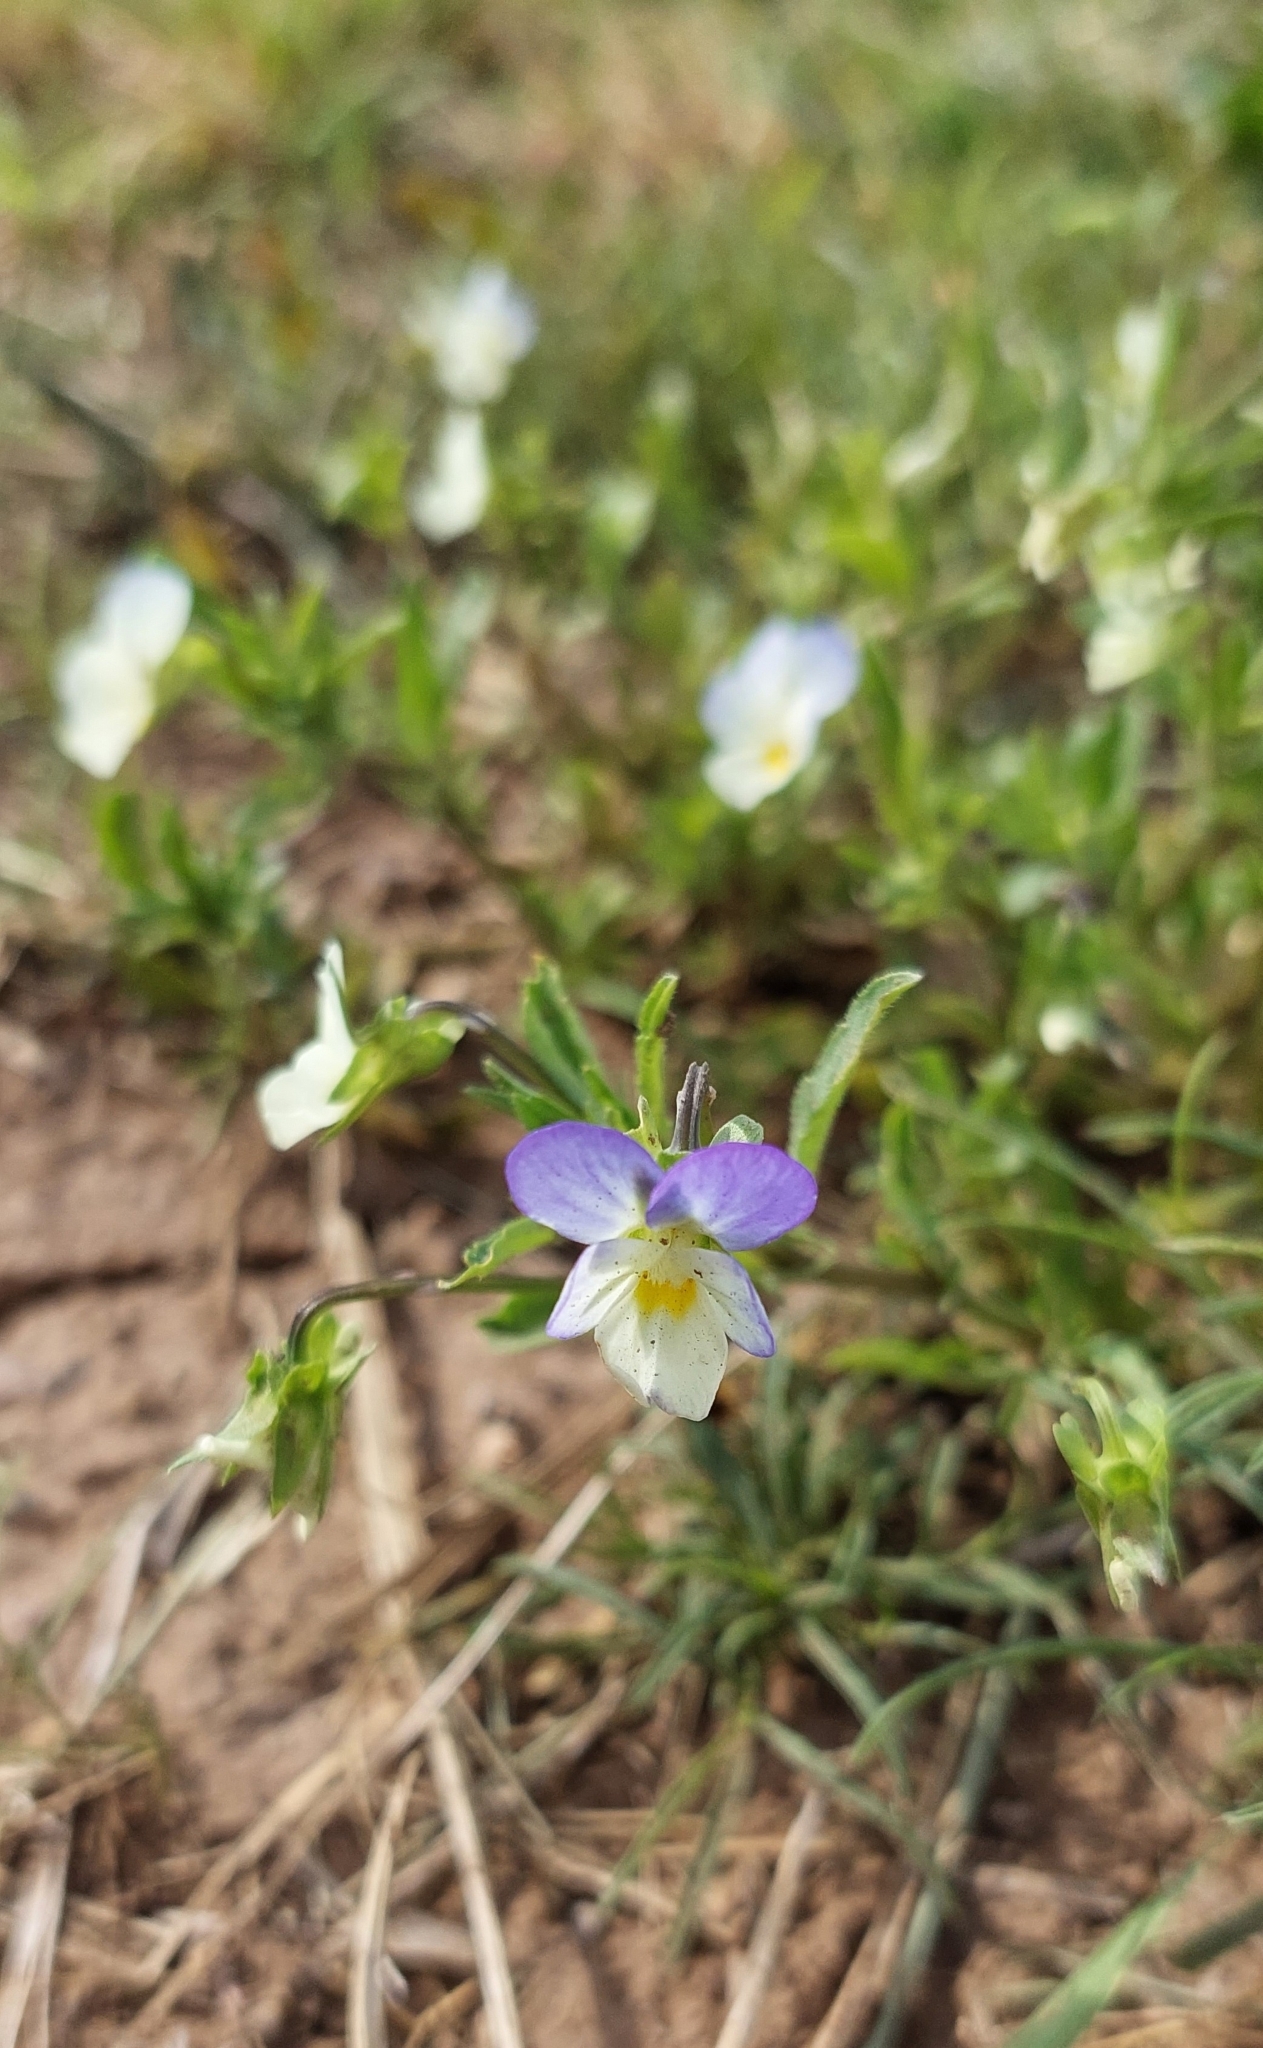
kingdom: Plantae
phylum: Tracheophyta
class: Magnoliopsida
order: Malpighiales
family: Violaceae
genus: Viola
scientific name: Viola tricolor
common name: Pansy
